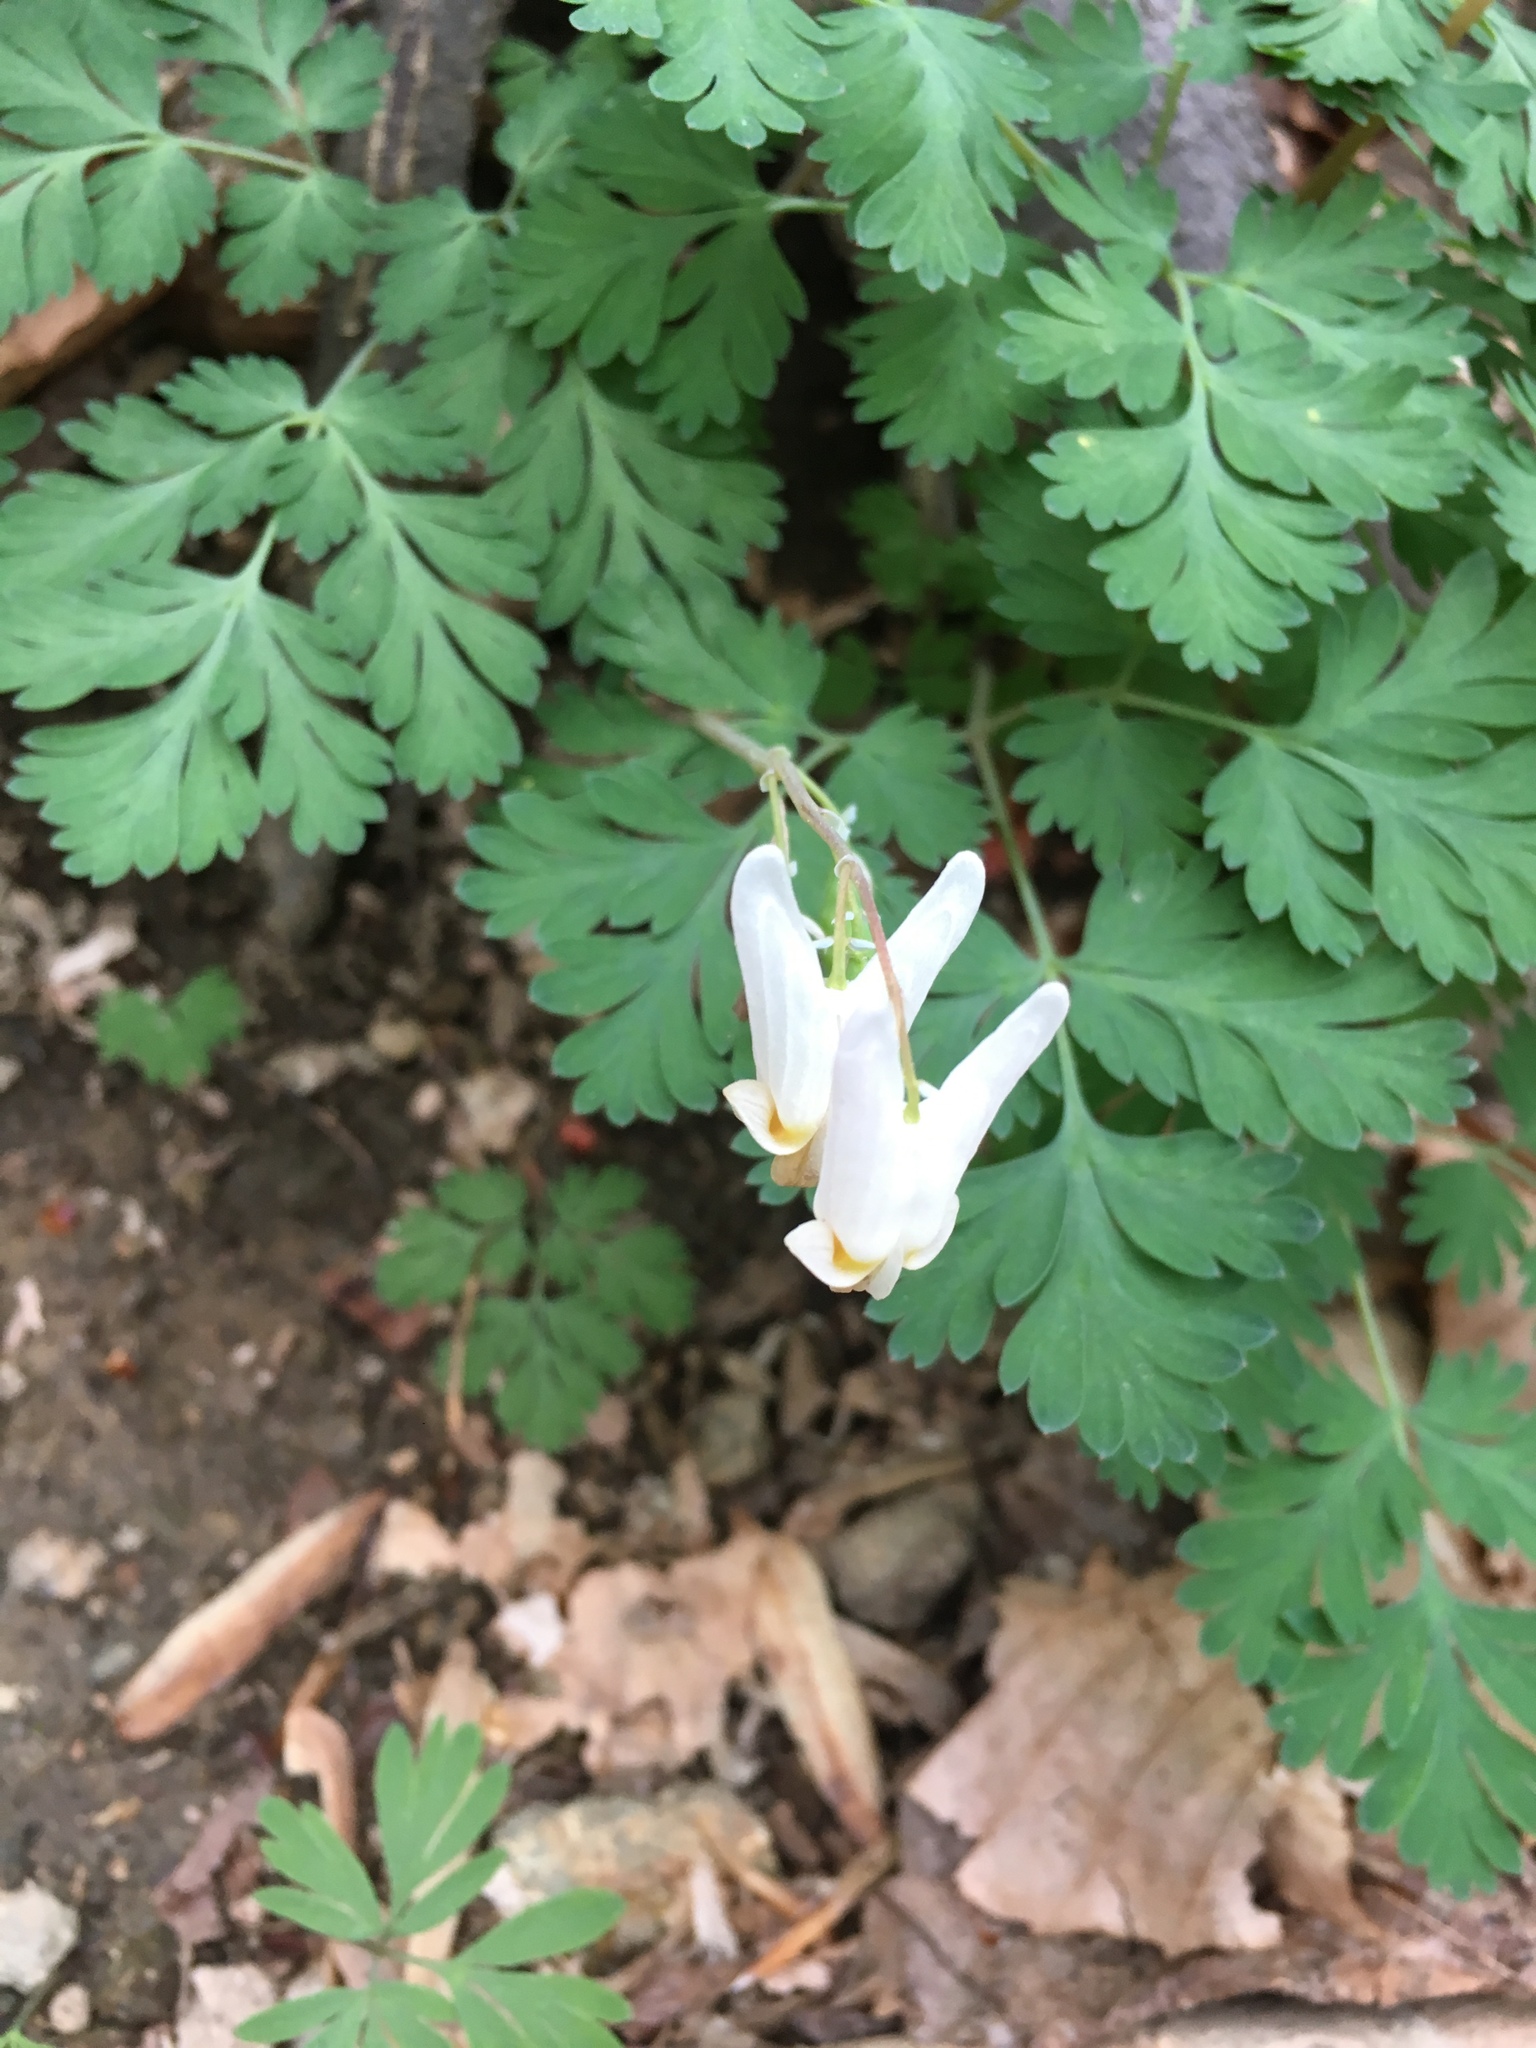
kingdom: Plantae
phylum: Tracheophyta
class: Magnoliopsida
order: Ranunculales
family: Papaveraceae
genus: Dicentra
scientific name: Dicentra cucullaria
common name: Dutchman's breeches
